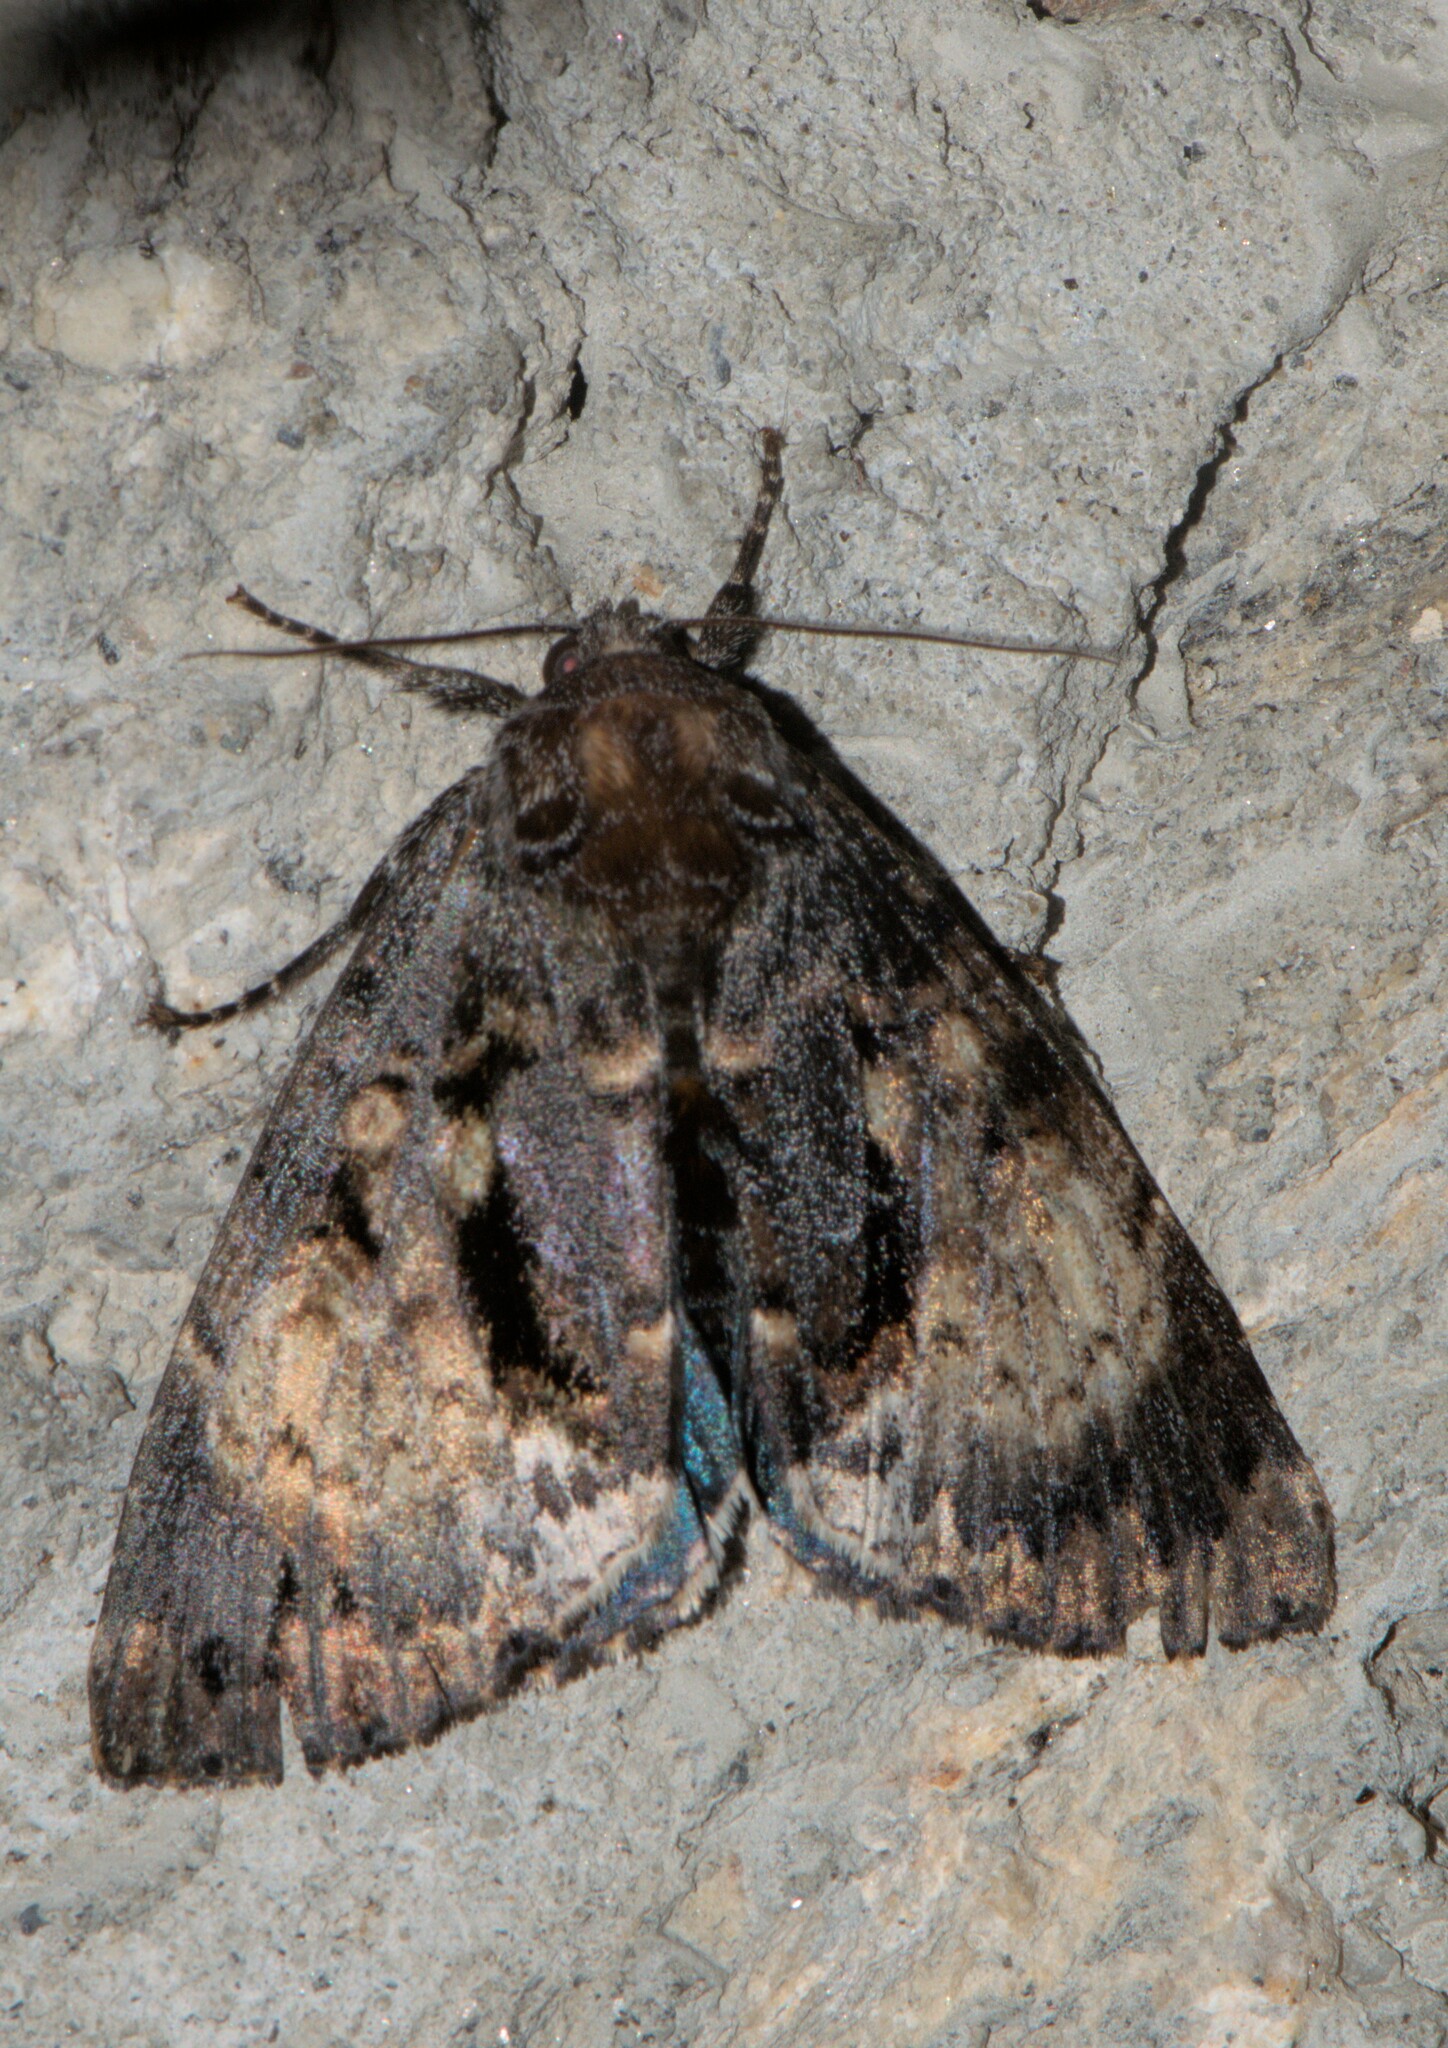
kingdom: Animalia
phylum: Arthropoda
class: Insecta
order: Lepidoptera
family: Noctuidae
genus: Disepholcia
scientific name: Disepholcia caerulea
